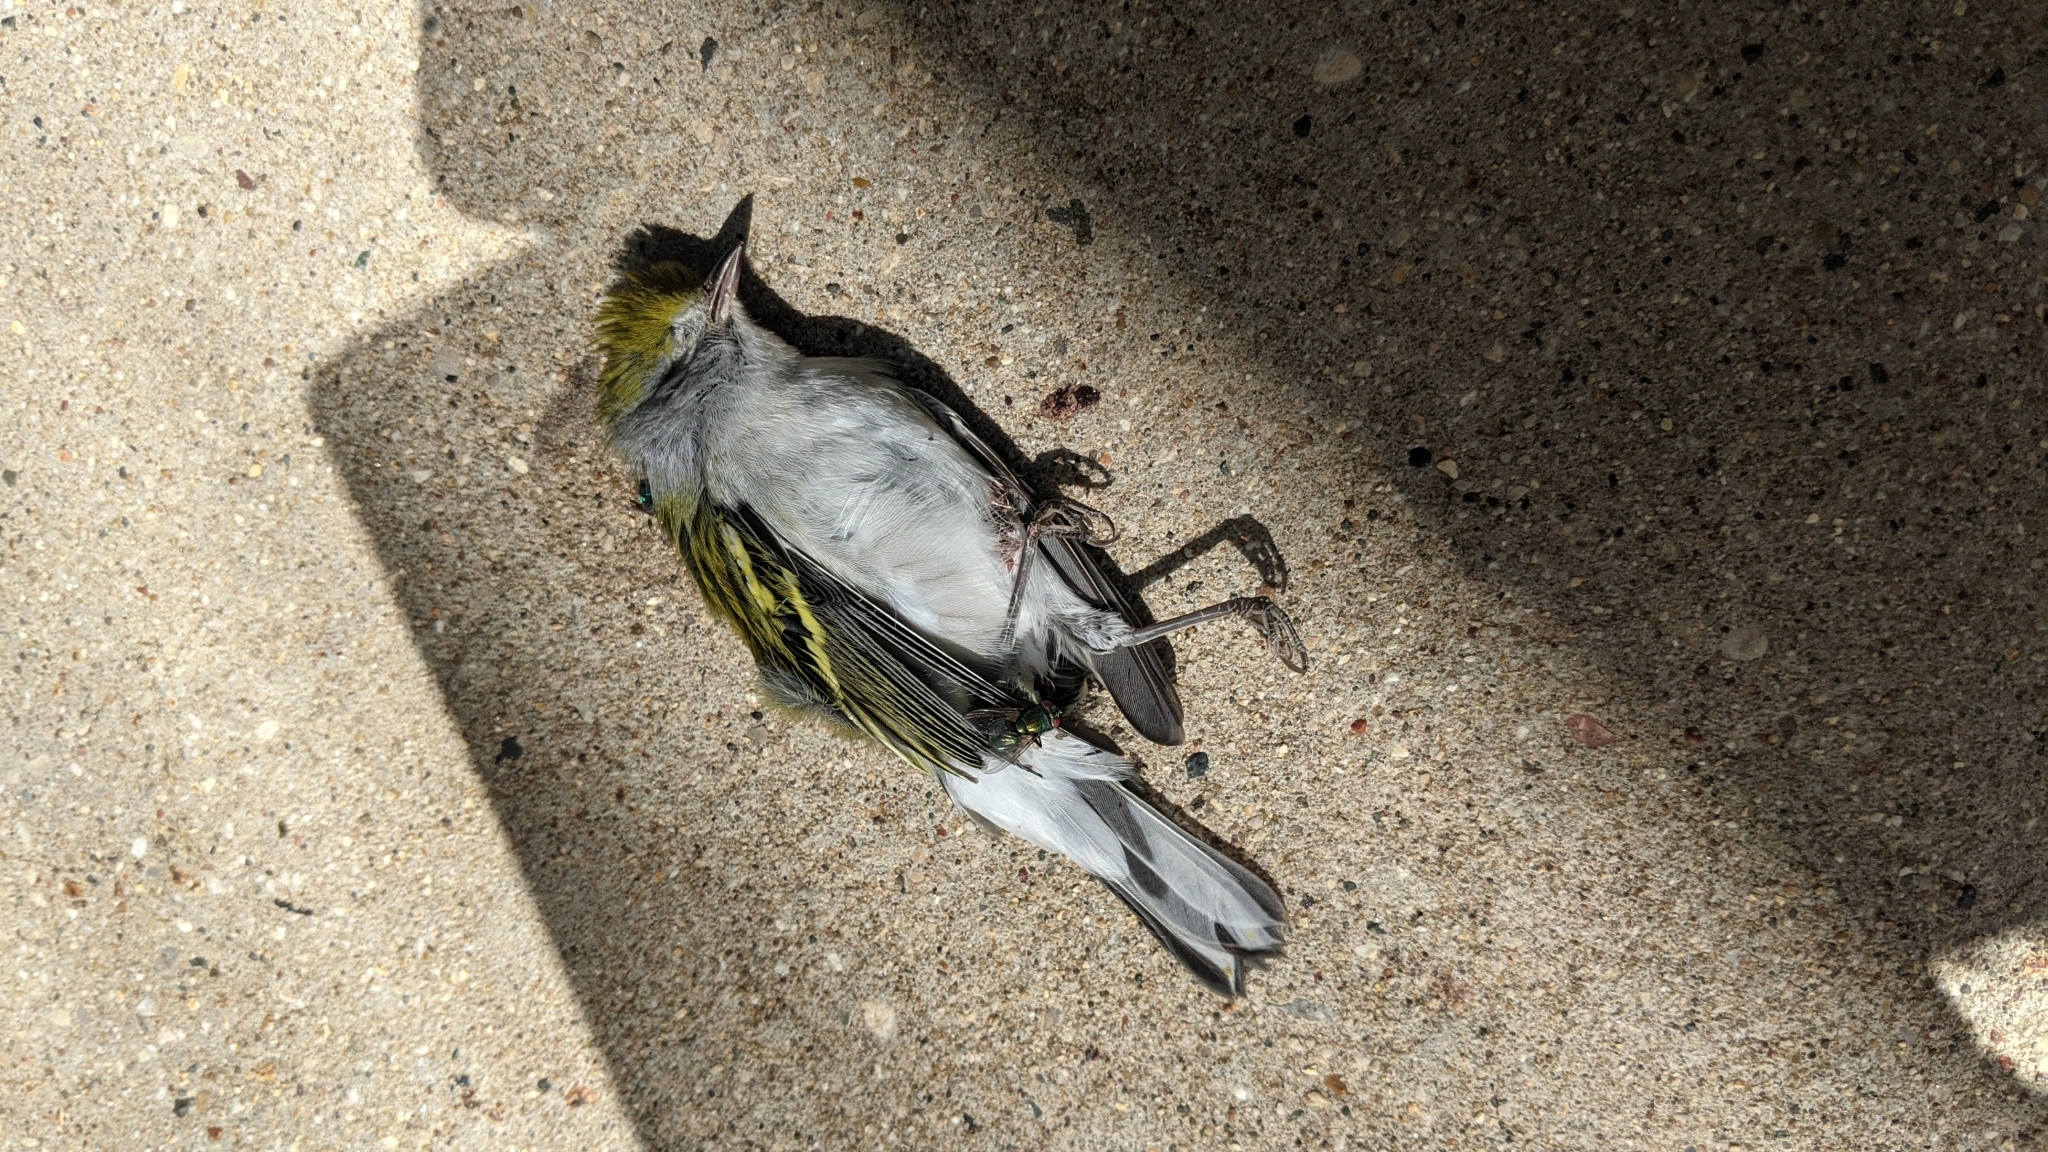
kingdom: Animalia
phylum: Chordata
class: Aves
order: Passeriformes
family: Parulidae
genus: Setophaga
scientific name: Setophaga pensylvanica
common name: Chestnut-sided warbler
